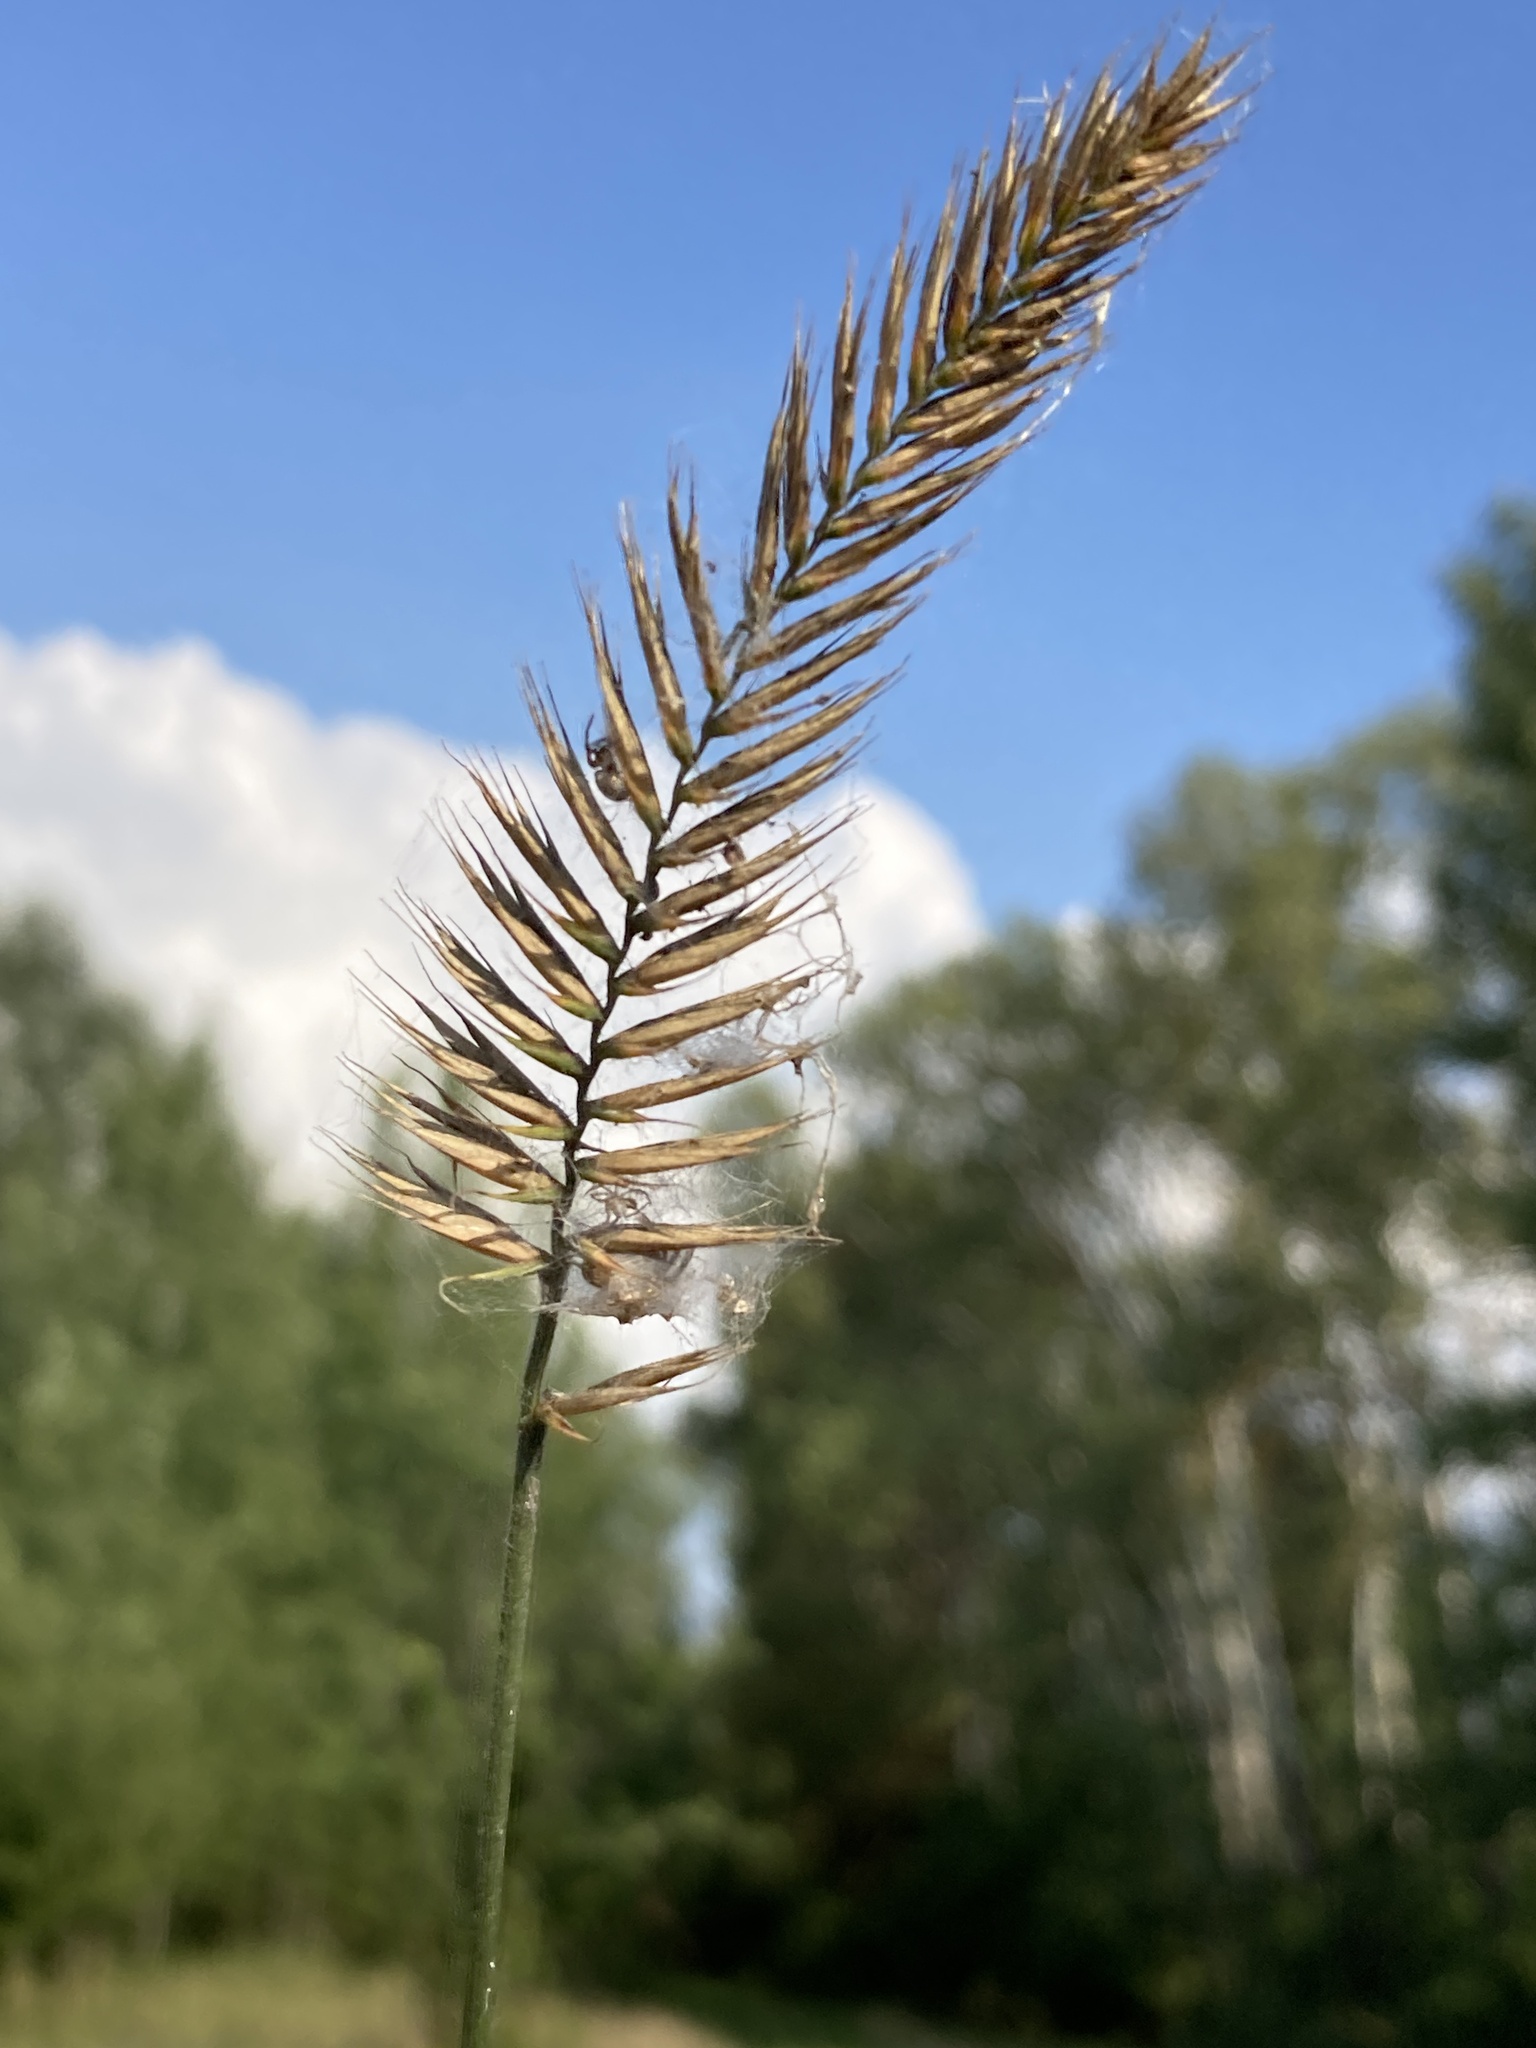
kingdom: Plantae
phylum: Tracheophyta
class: Liliopsida
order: Poales
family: Poaceae
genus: Agropyron
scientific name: Agropyron cristatum
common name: Crested wheatgrass
